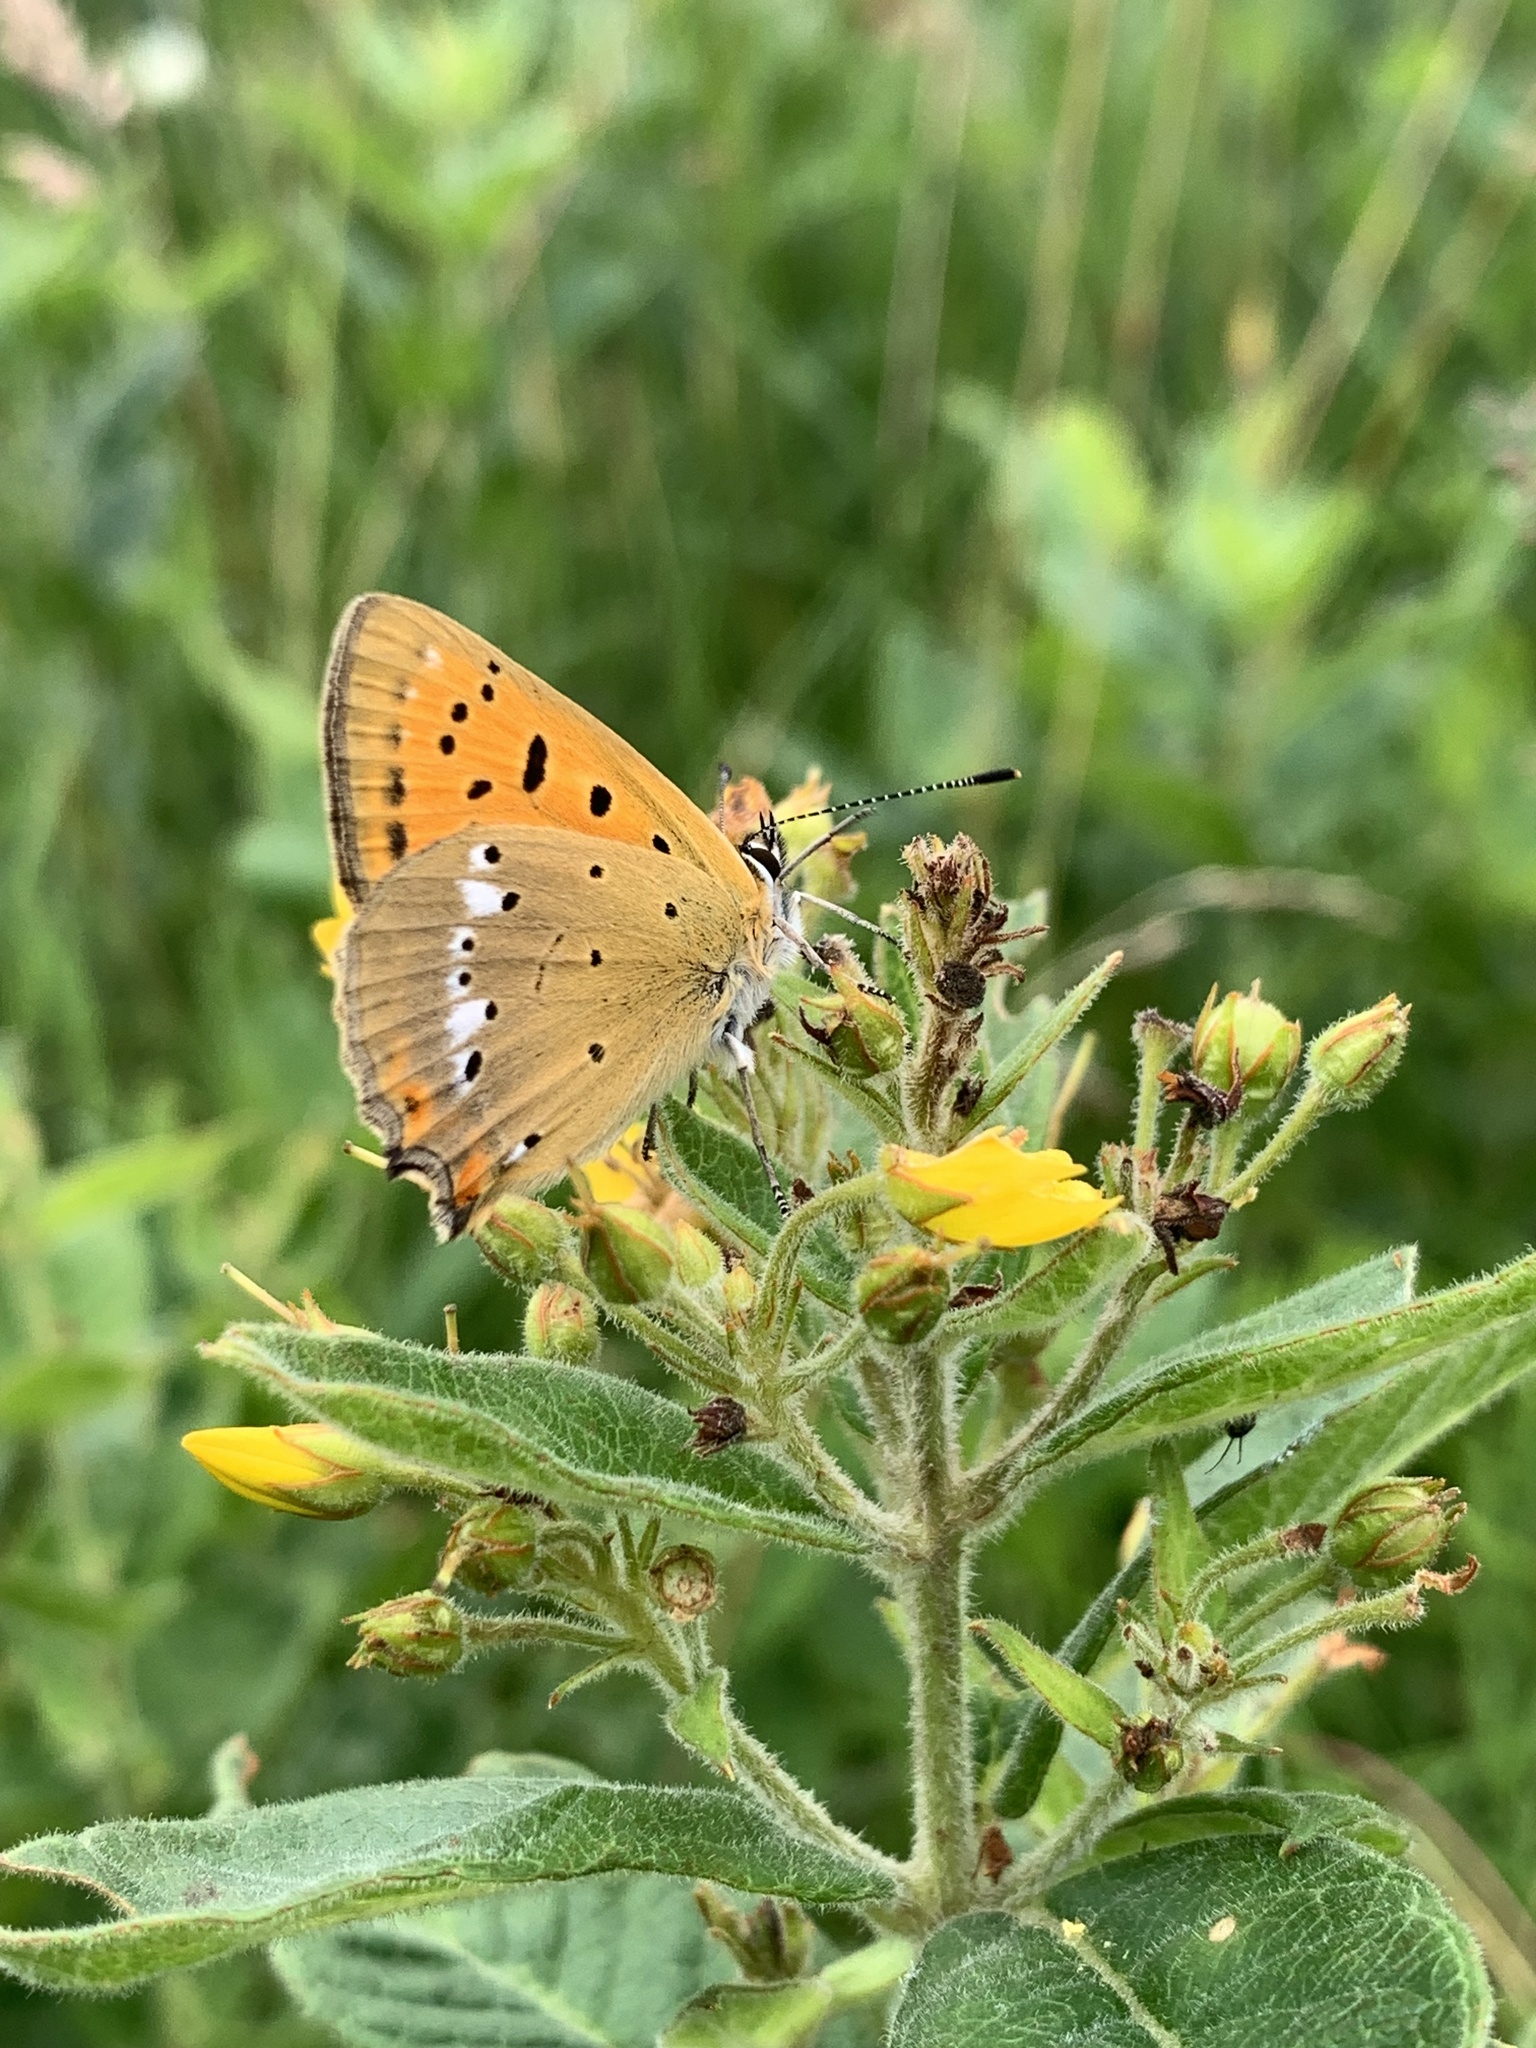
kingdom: Animalia
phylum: Arthropoda
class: Insecta
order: Lepidoptera
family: Lycaenidae
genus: Lycaena
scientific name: Lycaena virgaureae
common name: Scarce copper
